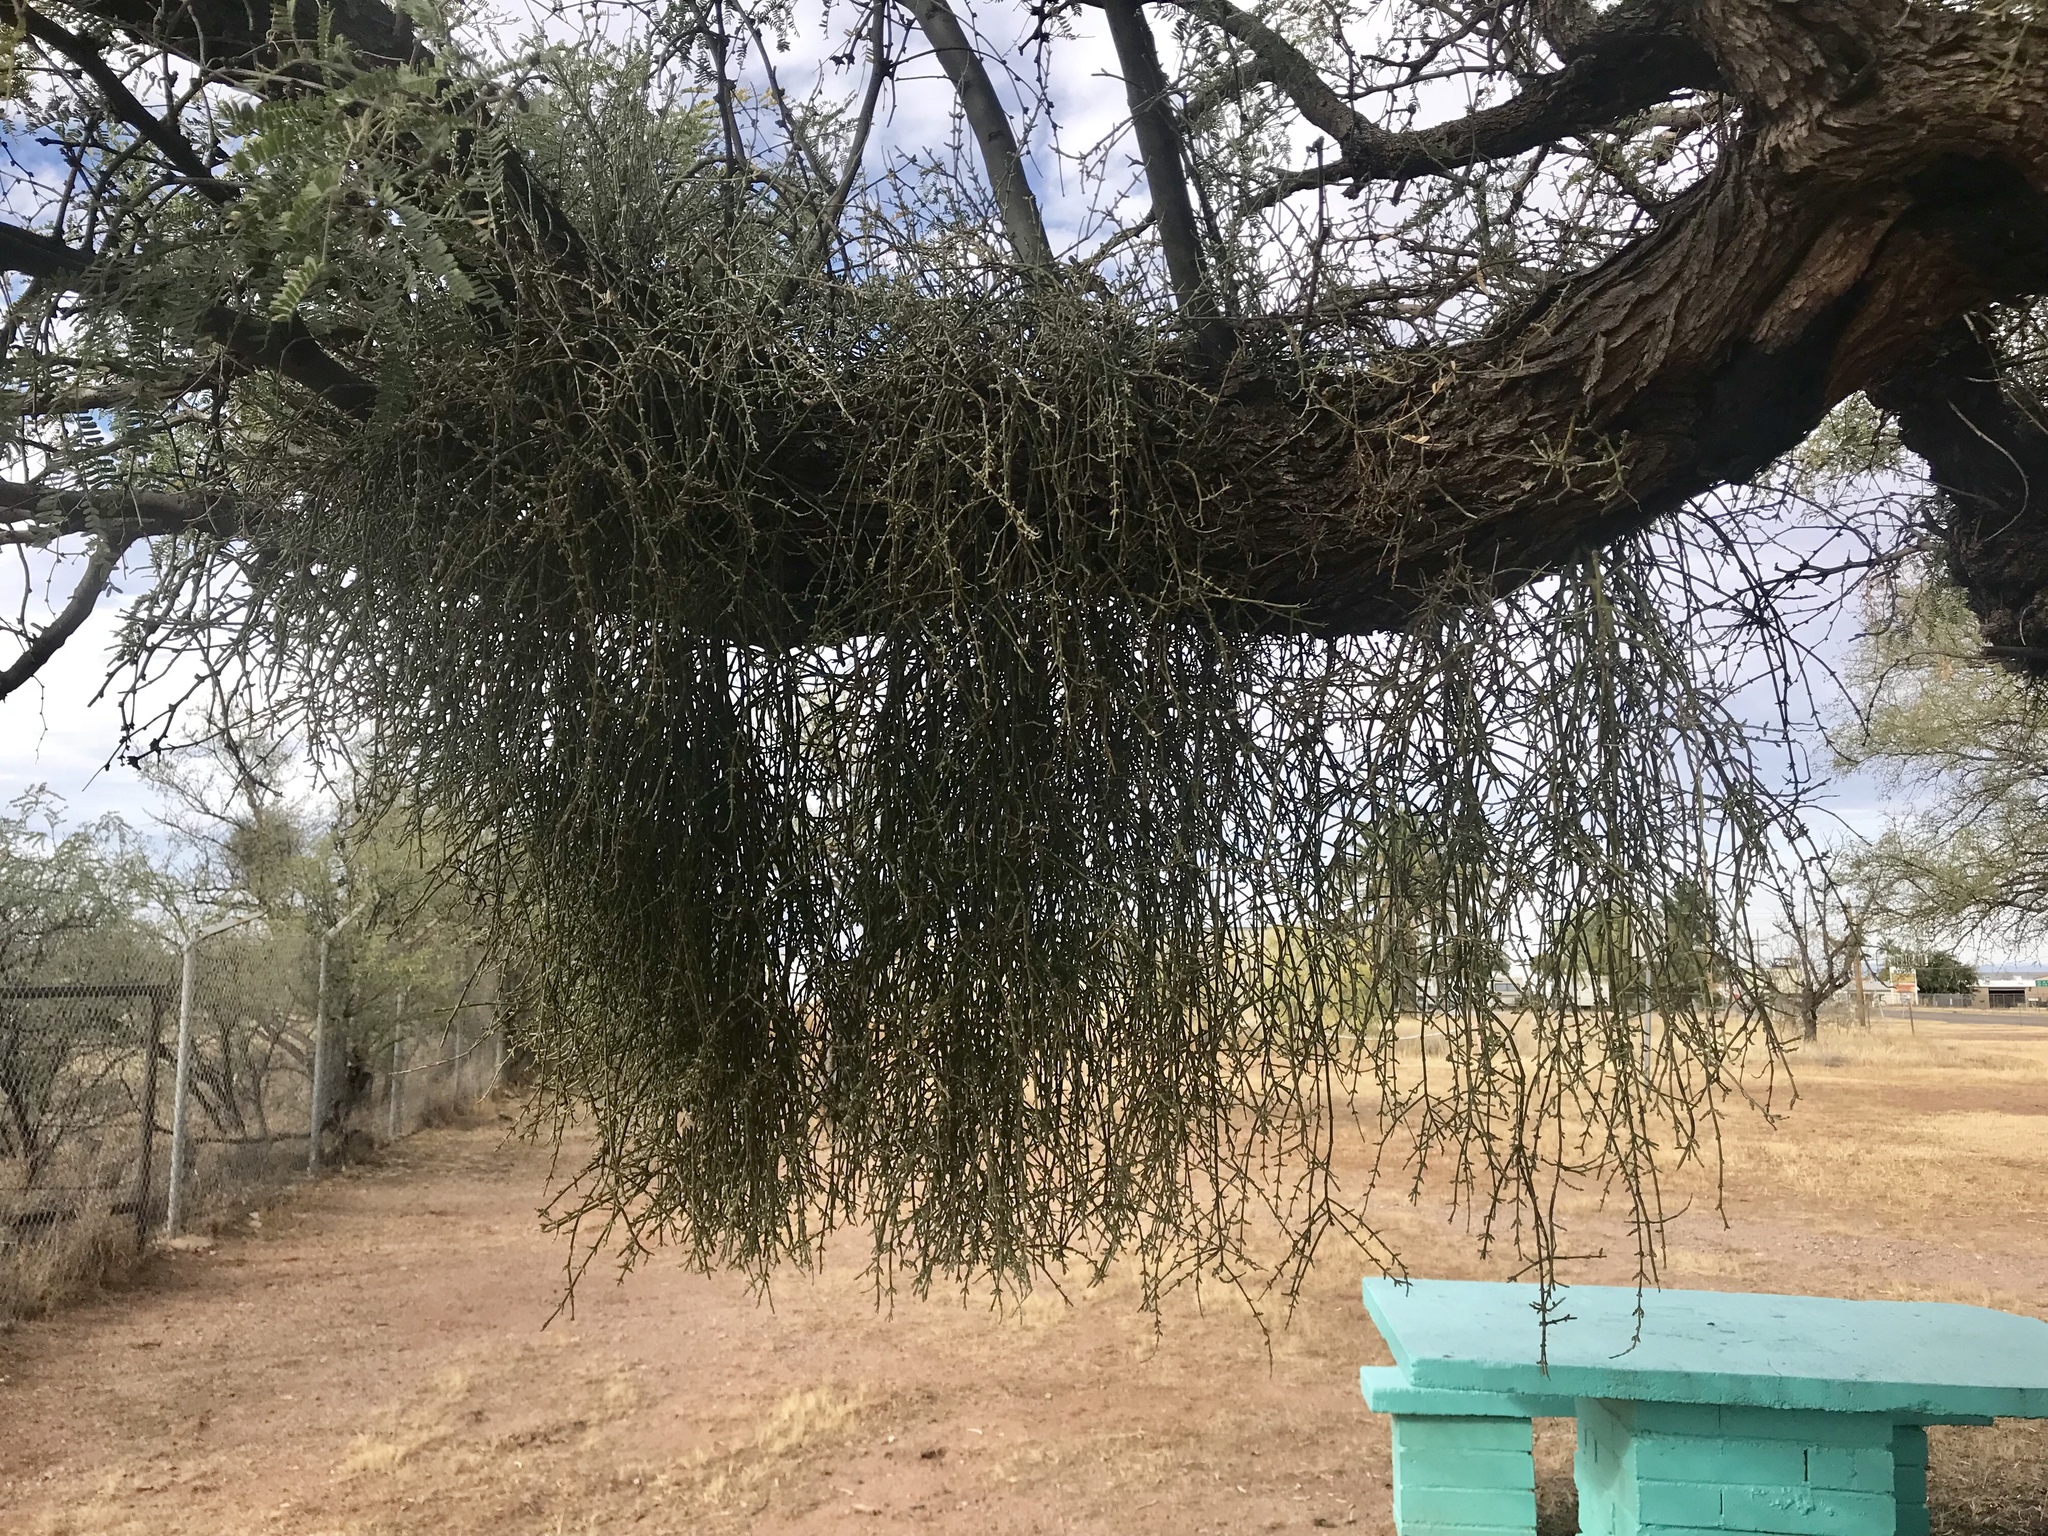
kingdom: Plantae
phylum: Tracheophyta
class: Magnoliopsida
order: Santalales
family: Viscaceae
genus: Phoradendron
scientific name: Phoradendron californicum
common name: Acacia mistletoe
